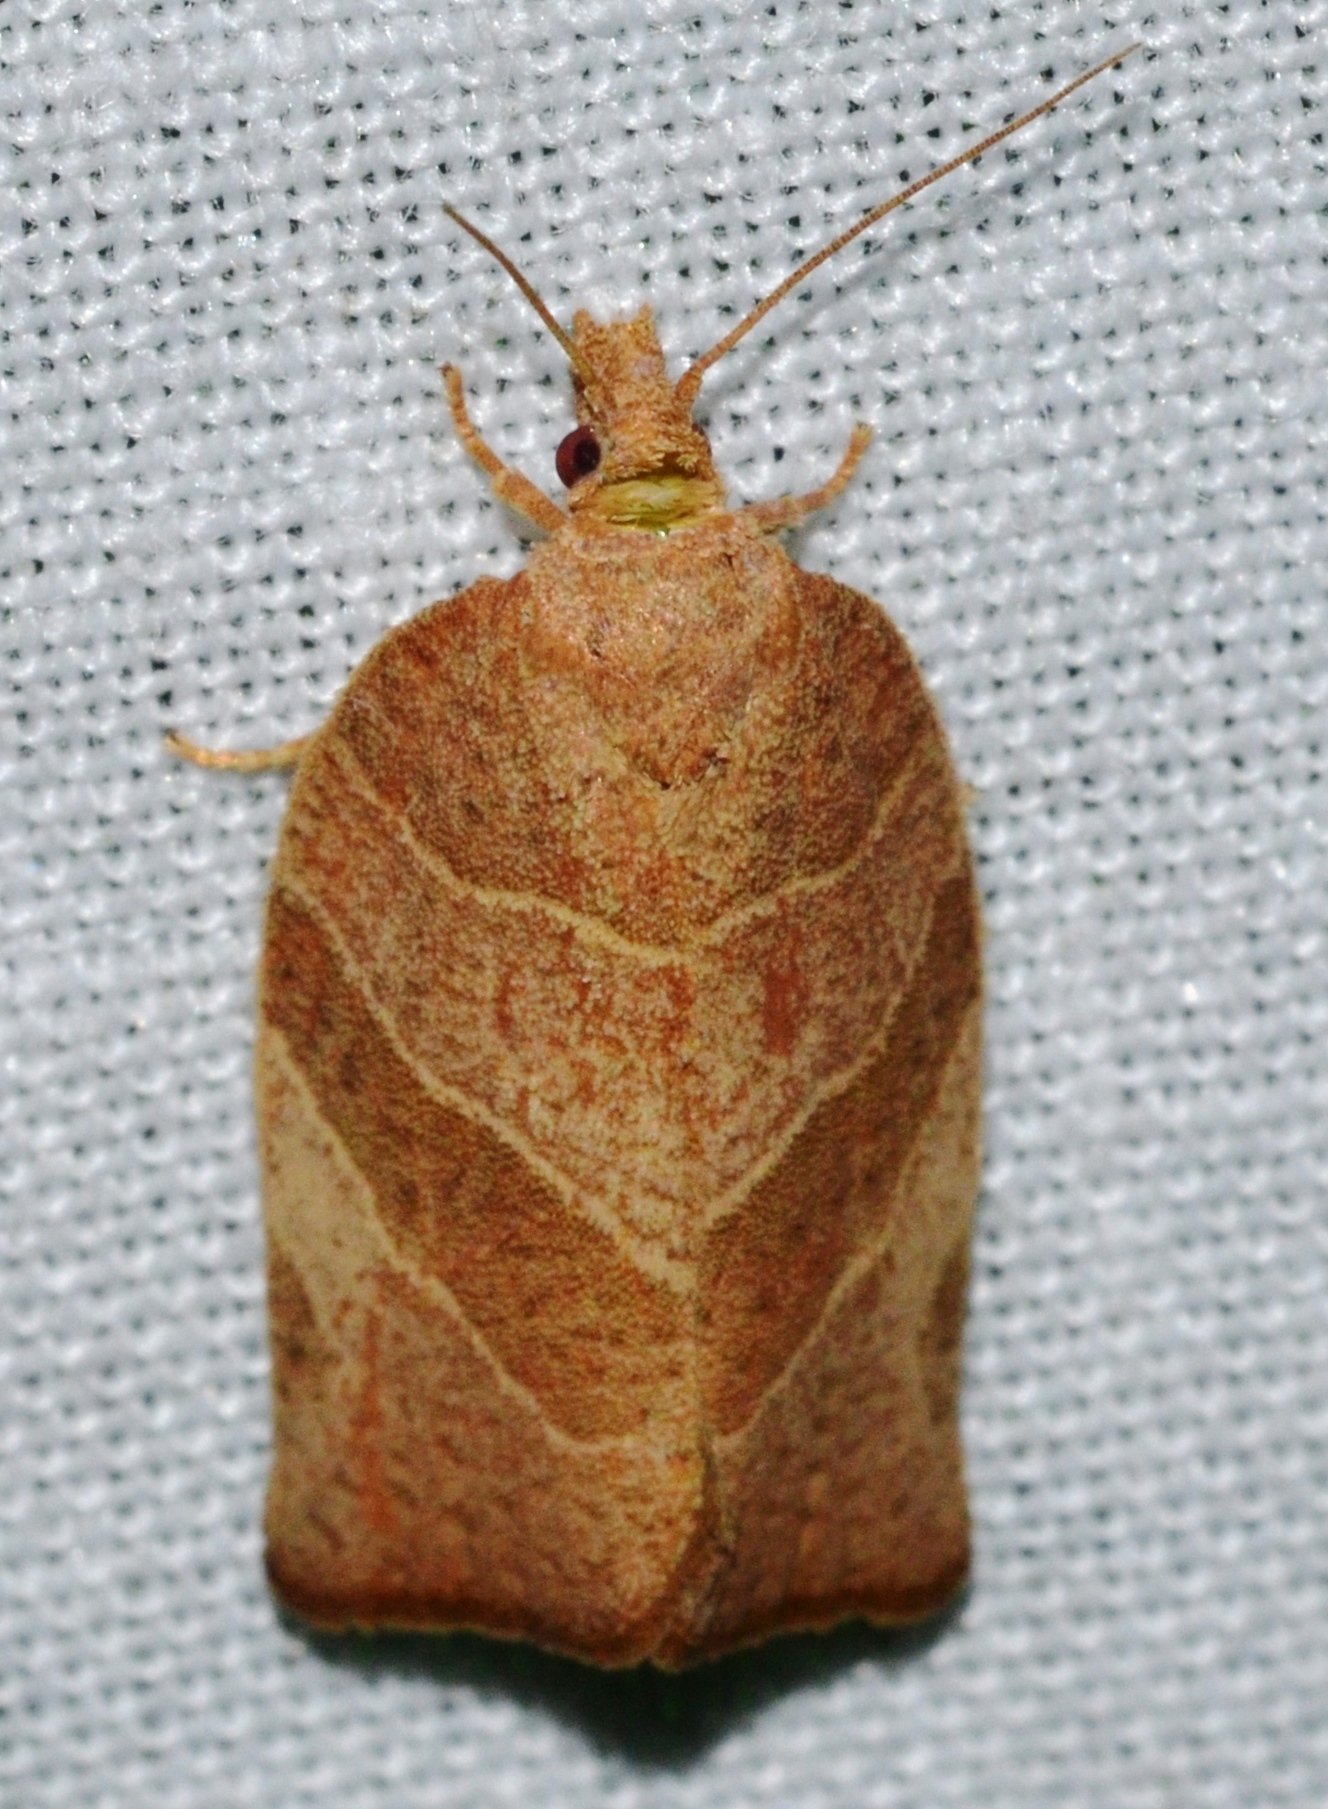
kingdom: Animalia
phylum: Arthropoda
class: Insecta
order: Lepidoptera
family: Tortricidae
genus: Pandemis
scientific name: Pandemis limitata
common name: Three-lined leafroller moth
